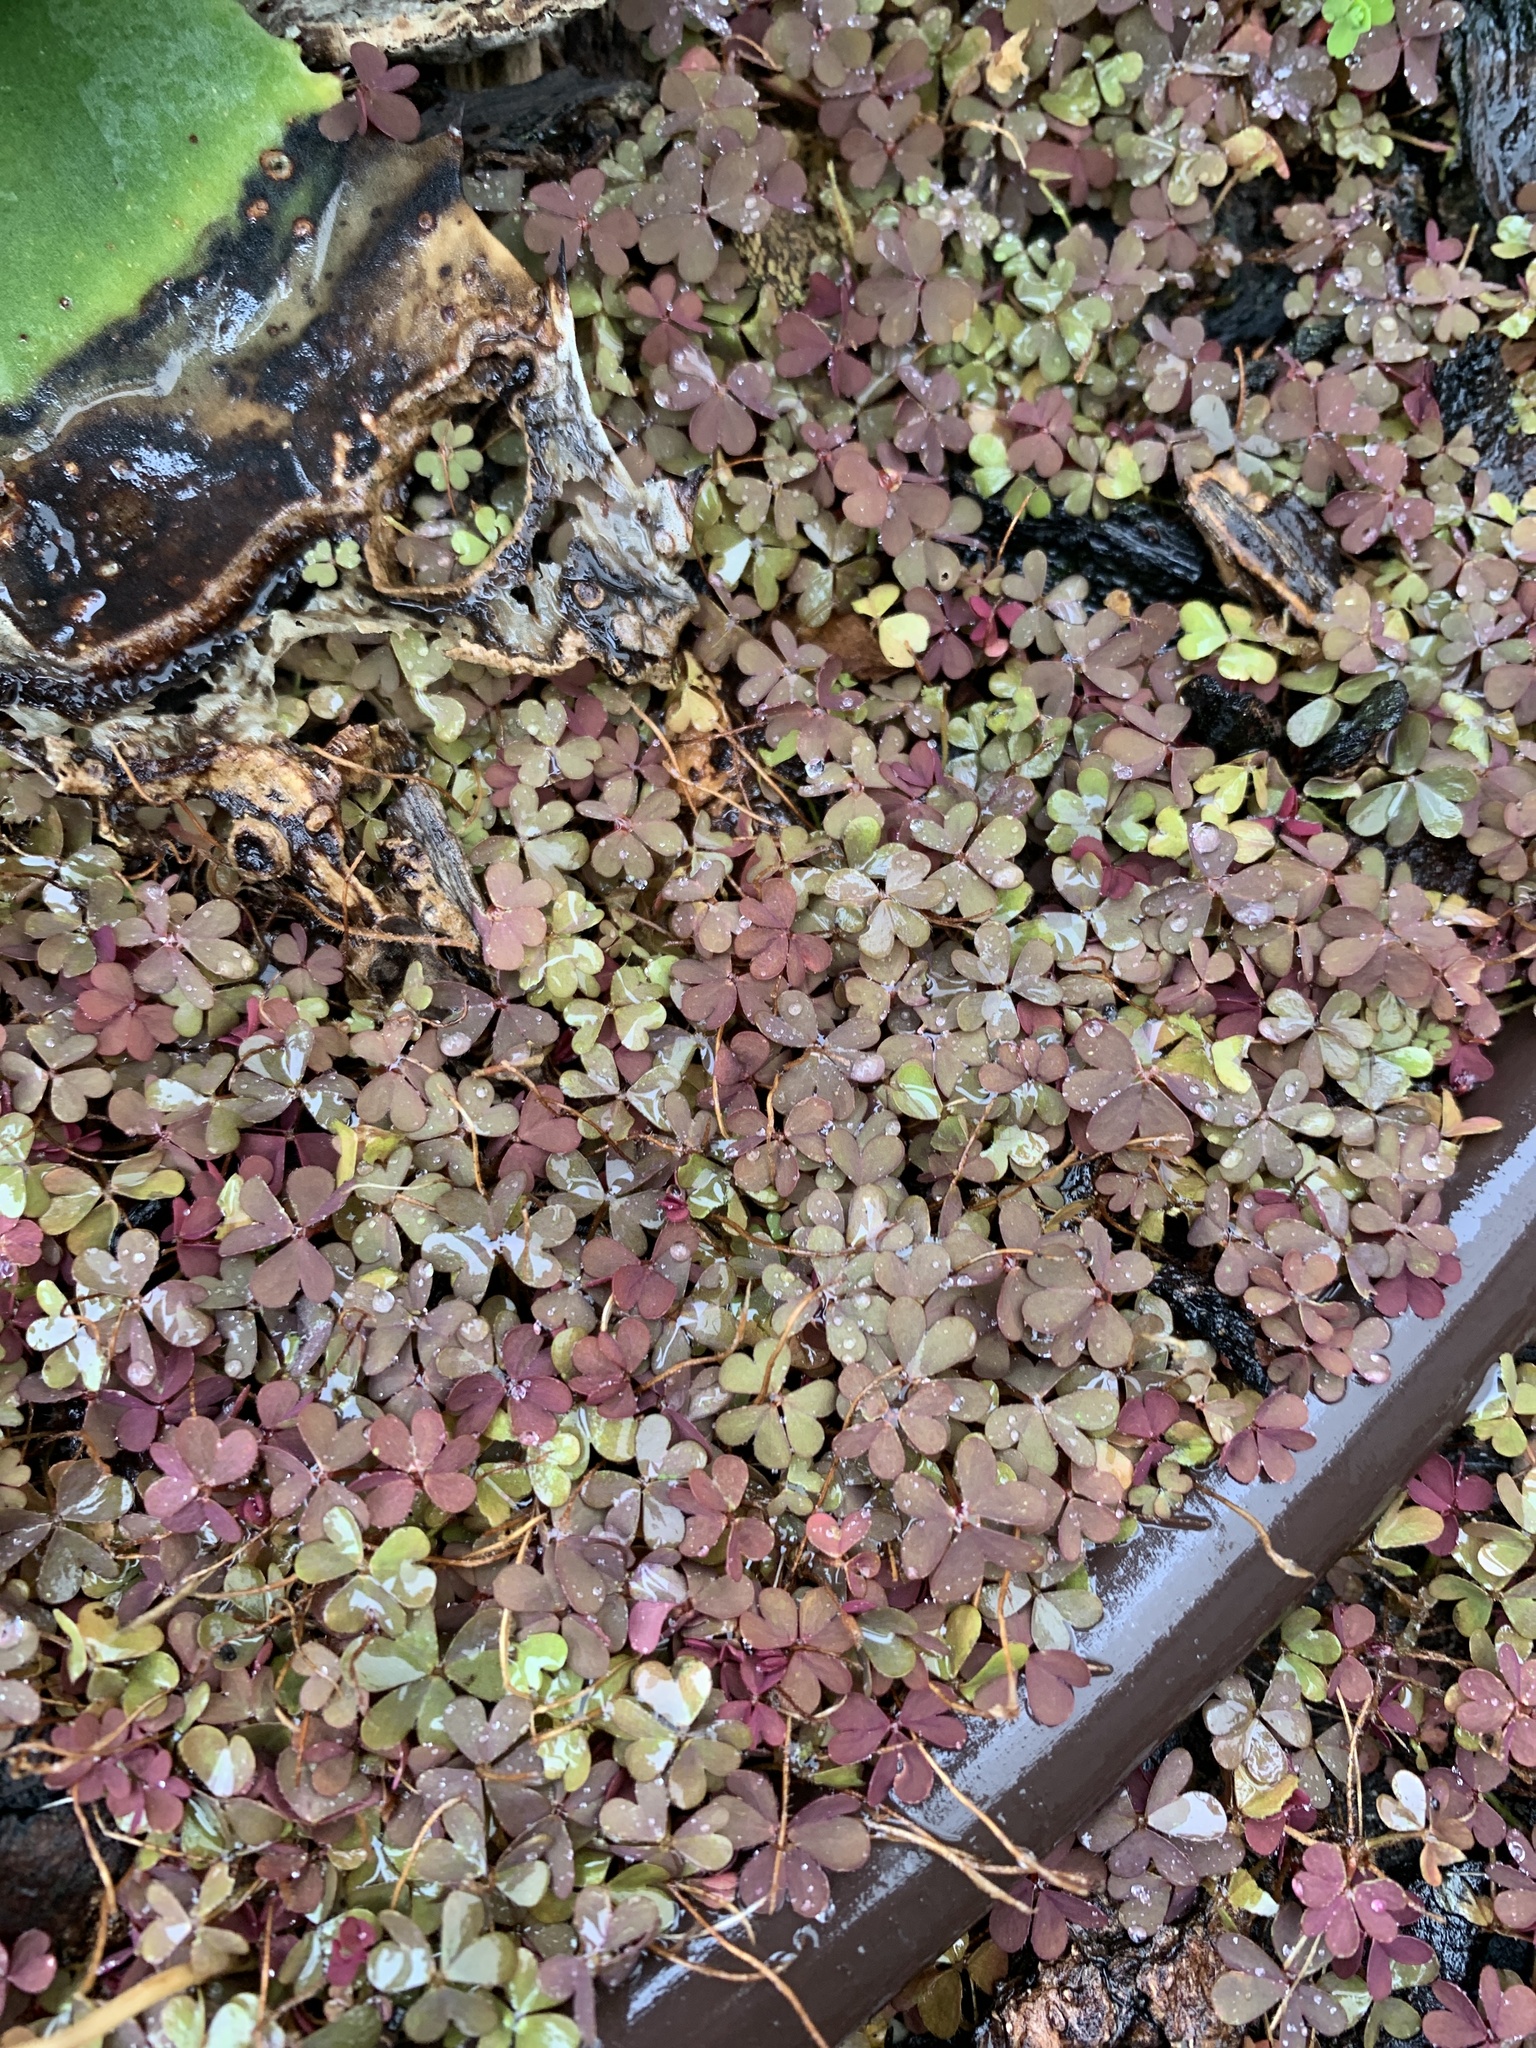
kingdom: Plantae
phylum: Tracheophyta
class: Magnoliopsida
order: Oxalidales
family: Oxalidaceae
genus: Oxalis
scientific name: Oxalis corniculata
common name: Procumbent yellow-sorrel
